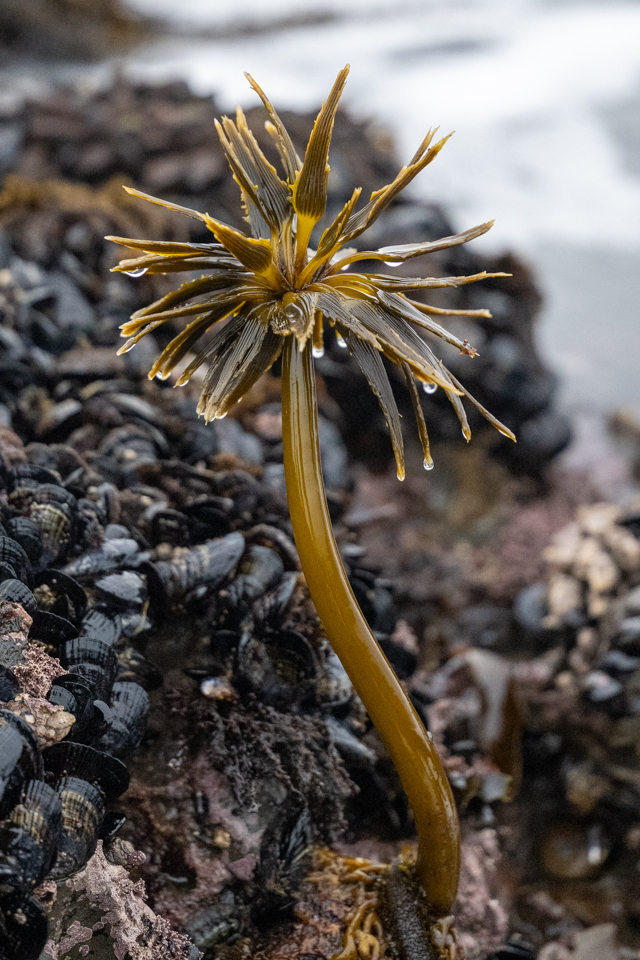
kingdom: Chromista
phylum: Ochrophyta
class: Phaeophyceae
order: Laminariales
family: Laminariaceae
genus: Postelsia
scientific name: Postelsia palmiformis
